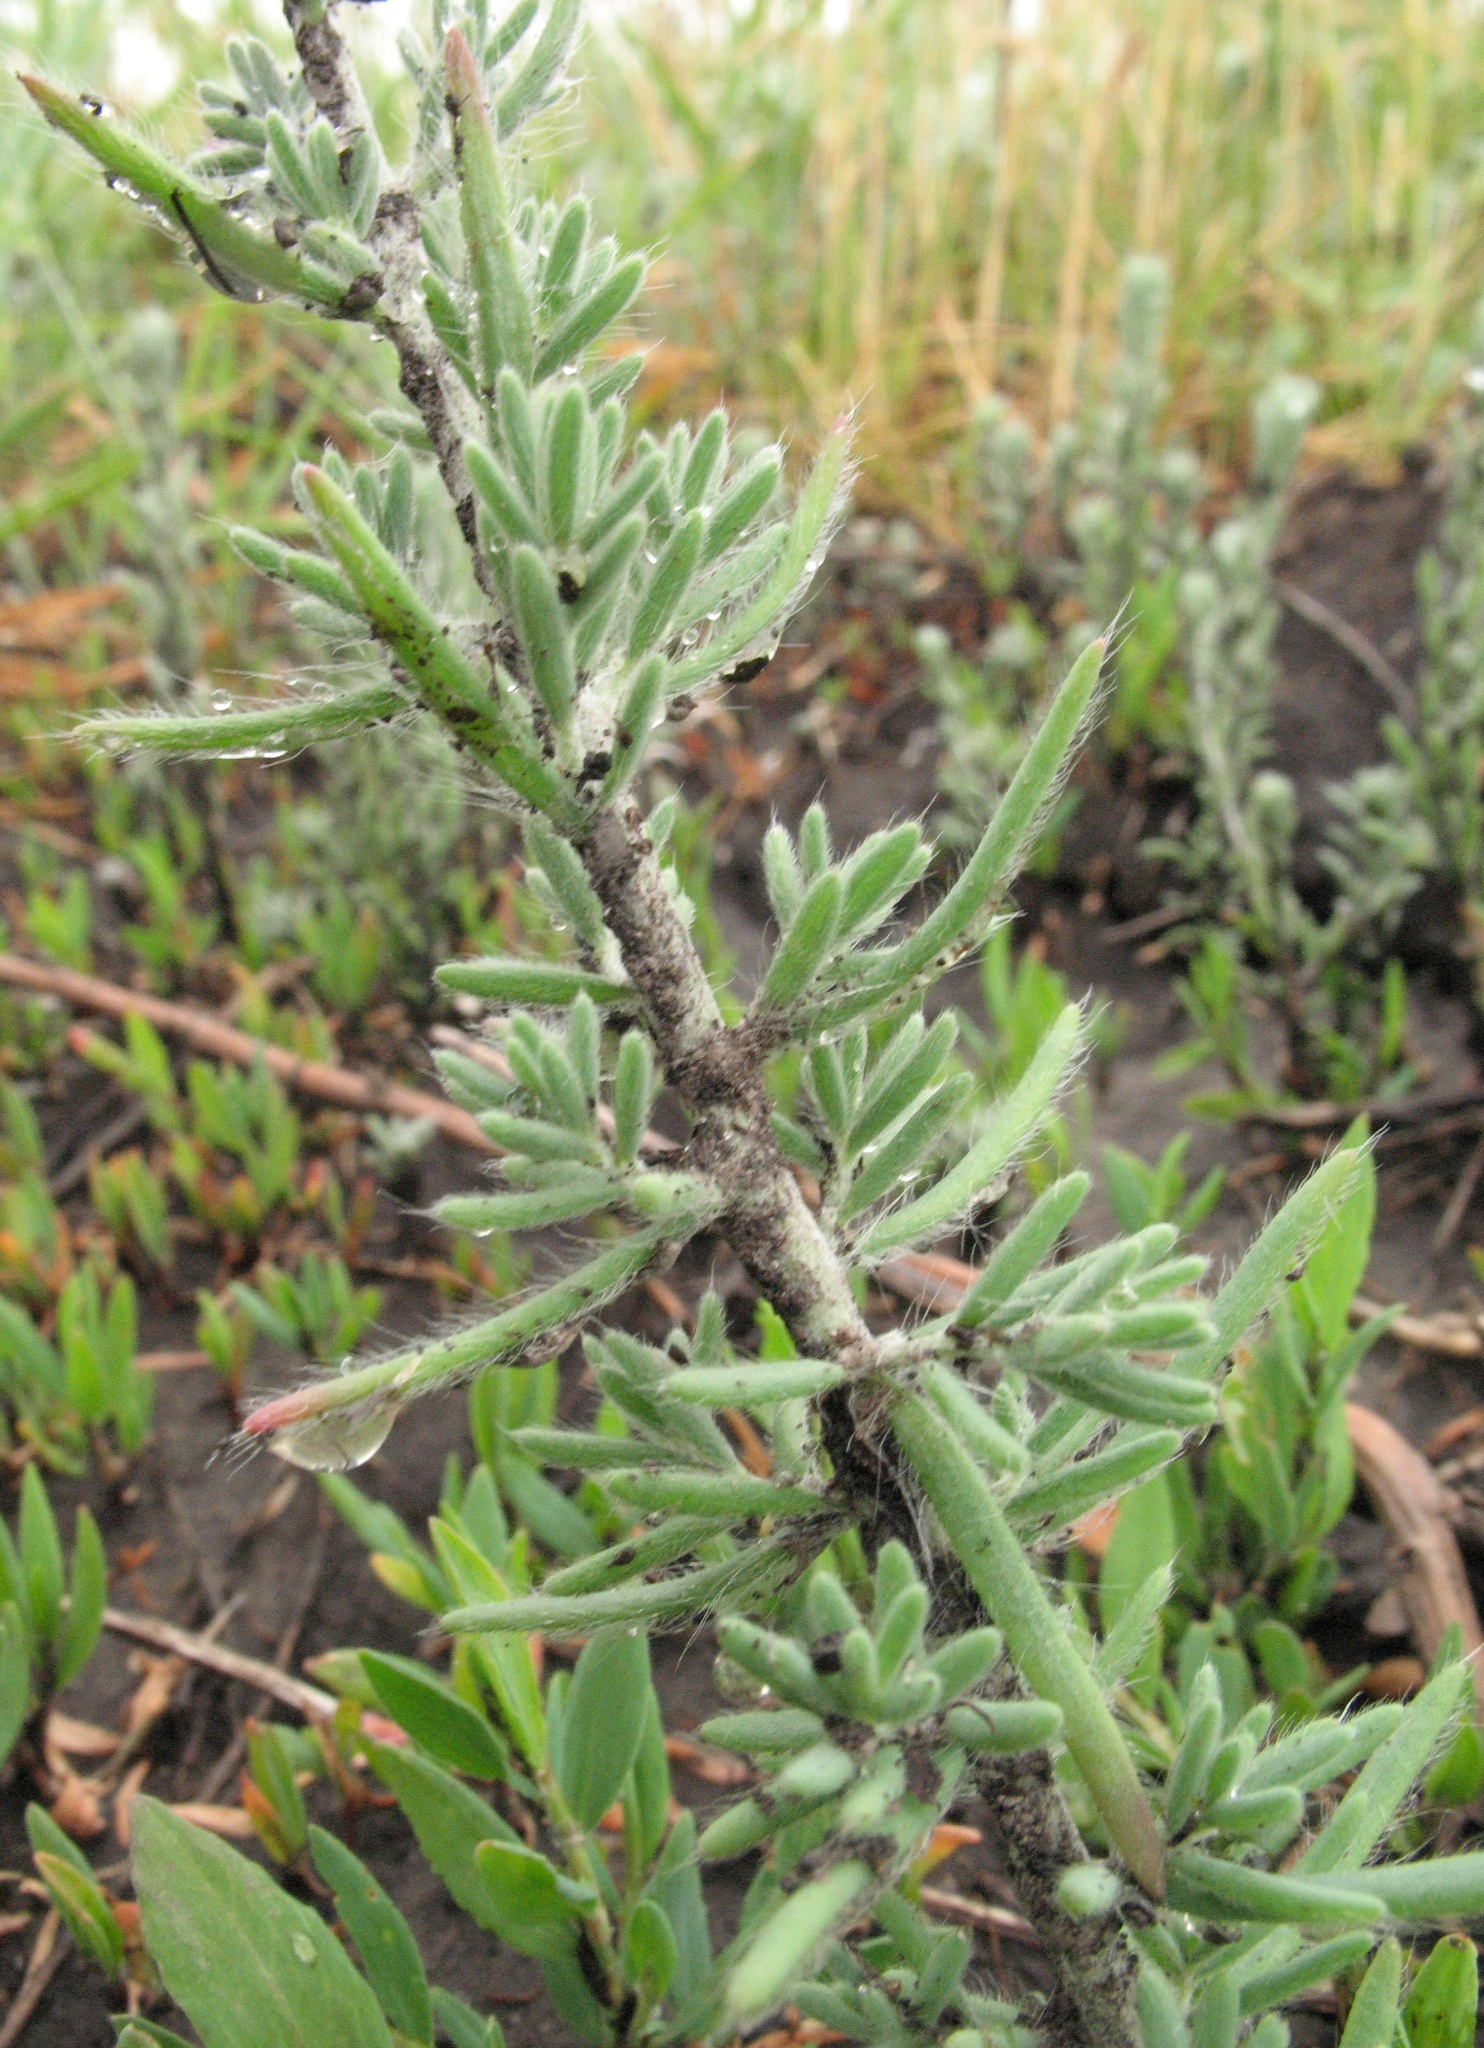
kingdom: Plantae
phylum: Tracheophyta
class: Magnoliopsida
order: Caryophyllales
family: Amaranthaceae
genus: Sedobassia
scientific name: Sedobassia sedoides
